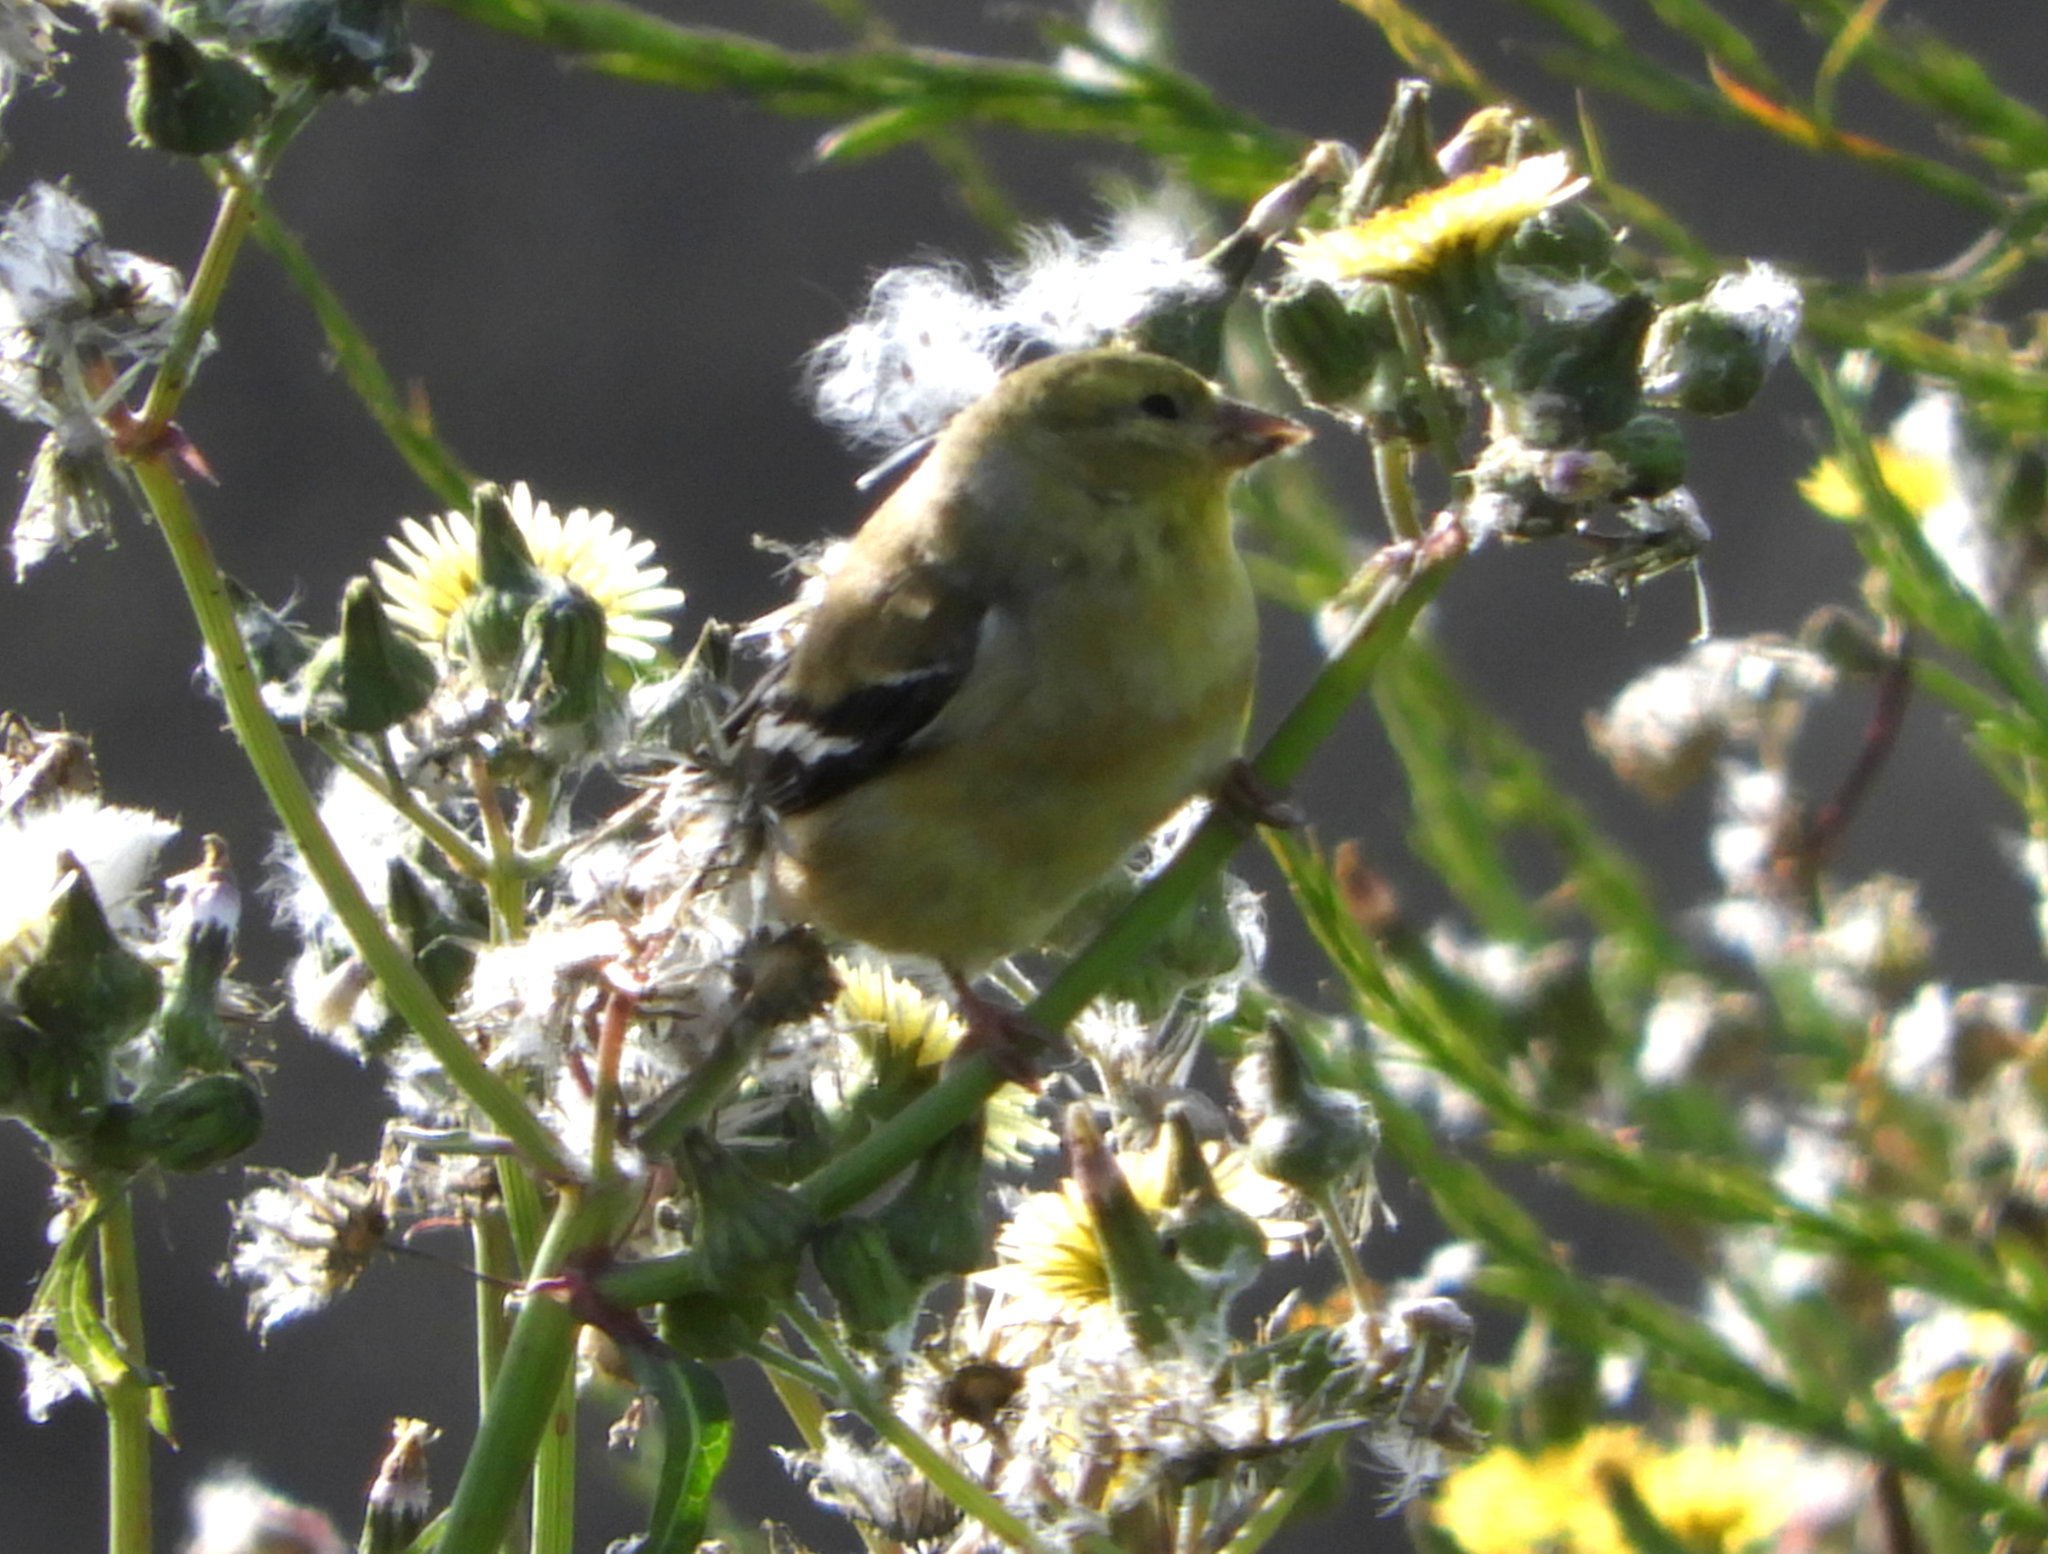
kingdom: Animalia
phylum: Chordata
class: Aves
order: Passeriformes
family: Fringillidae
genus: Spinus
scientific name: Spinus tristis
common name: American goldfinch
